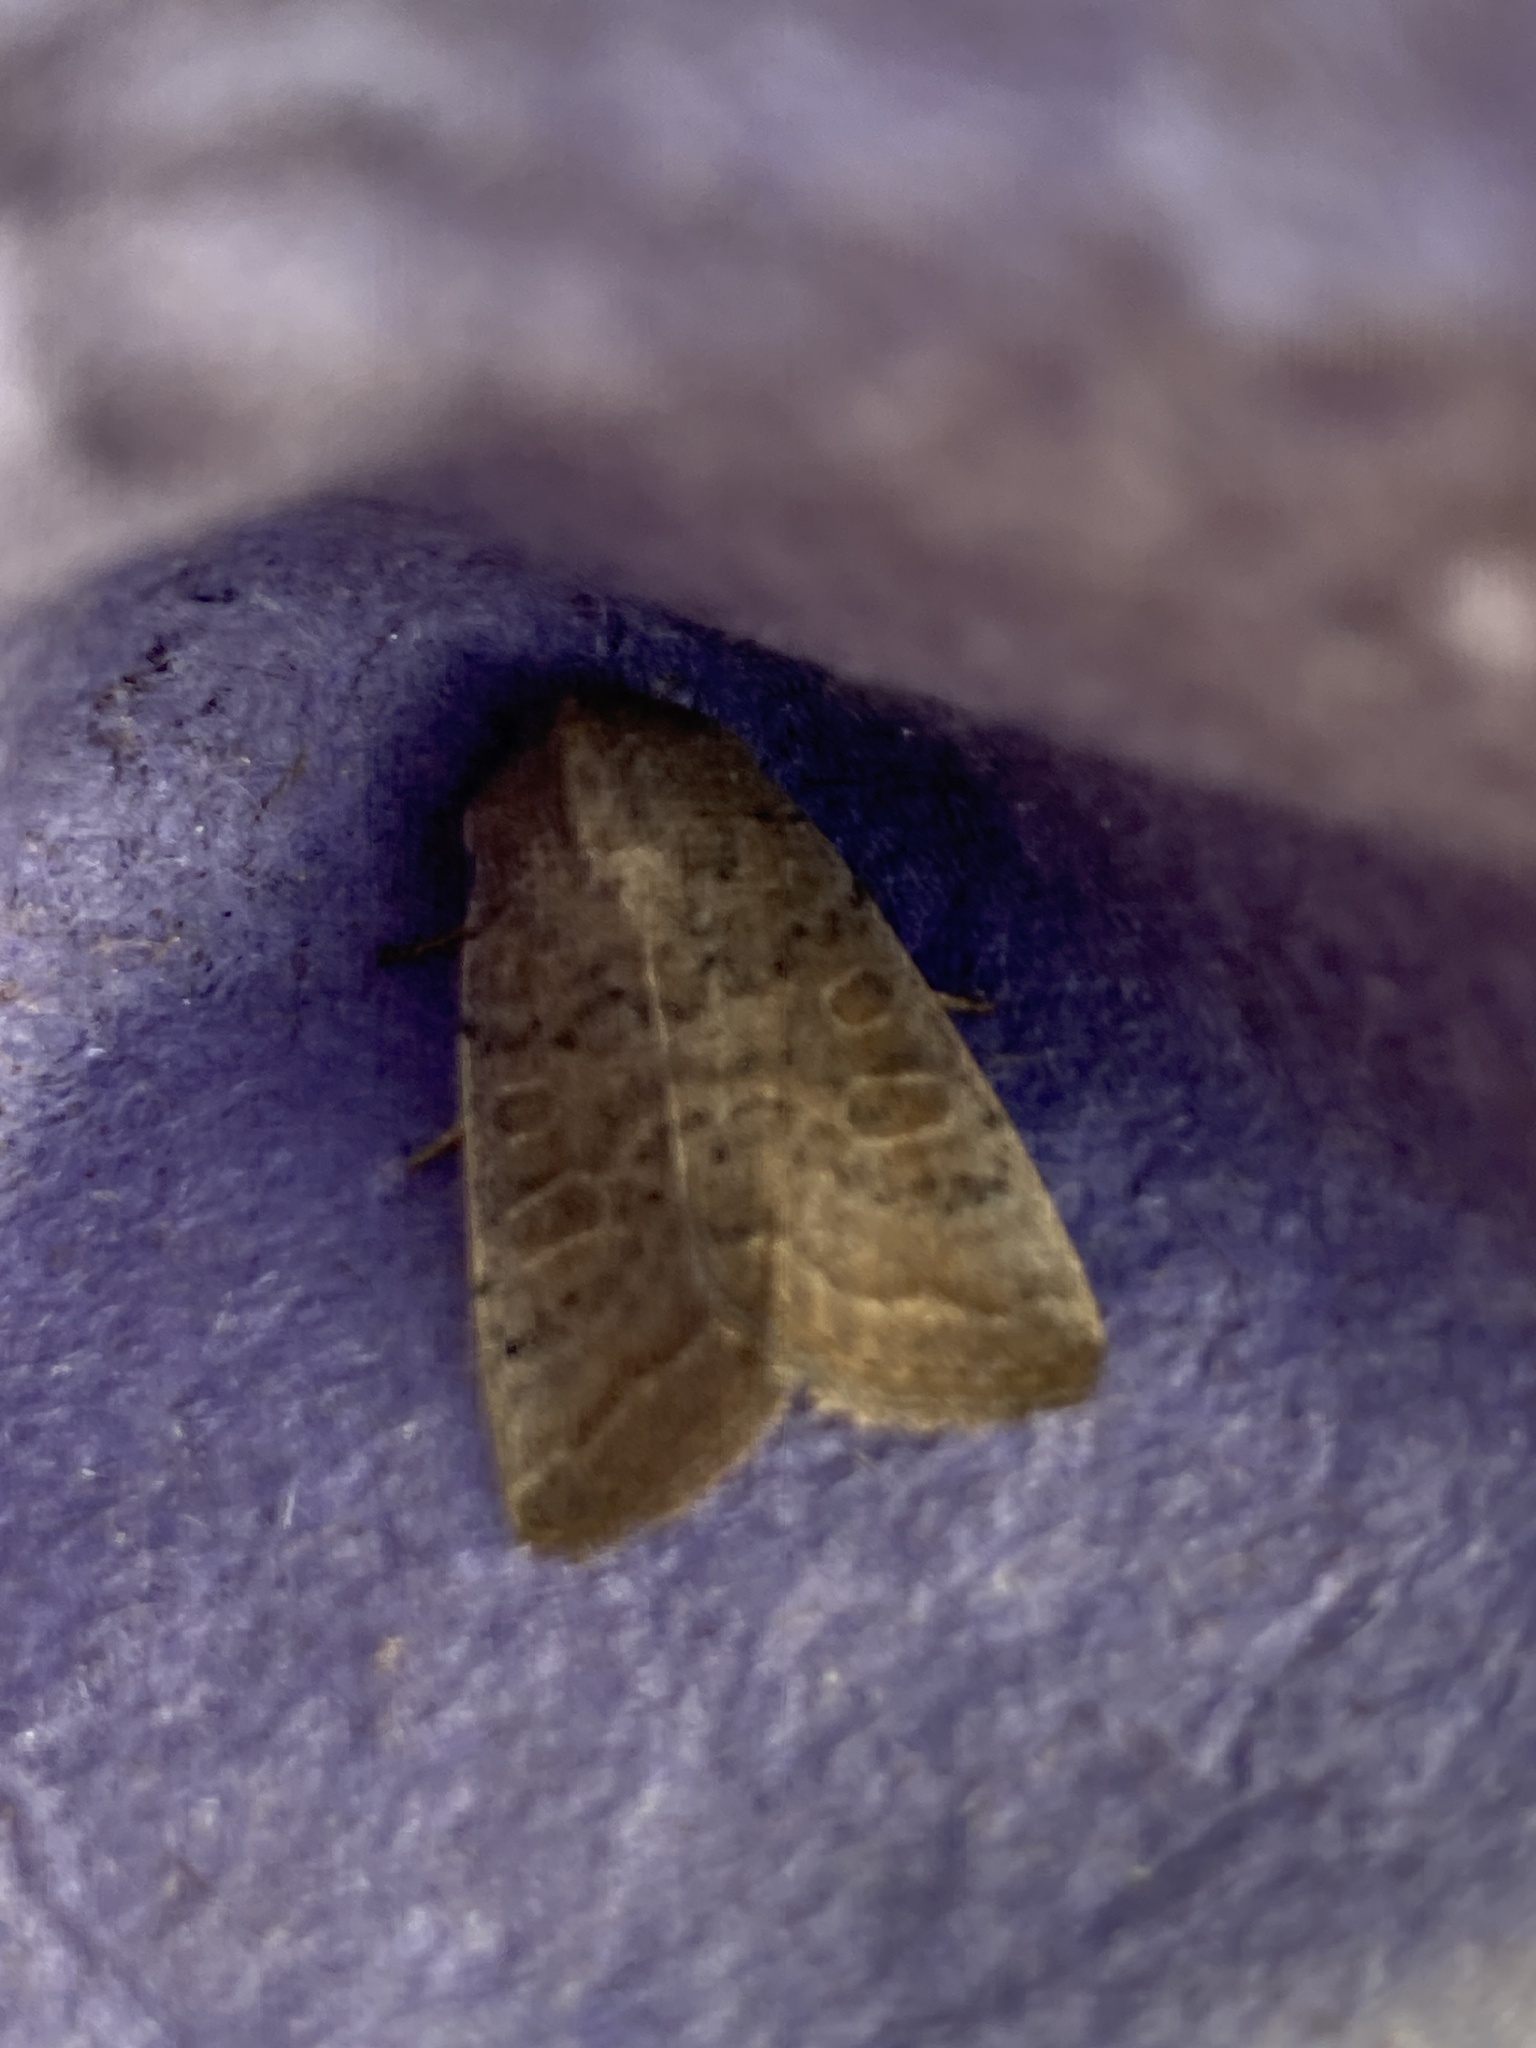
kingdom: Animalia
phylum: Arthropoda
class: Insecta
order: Lepidoptera
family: Noctuidae
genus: Hoplodrina
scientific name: Hoplodrina ambigua
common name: Vine's rustic
